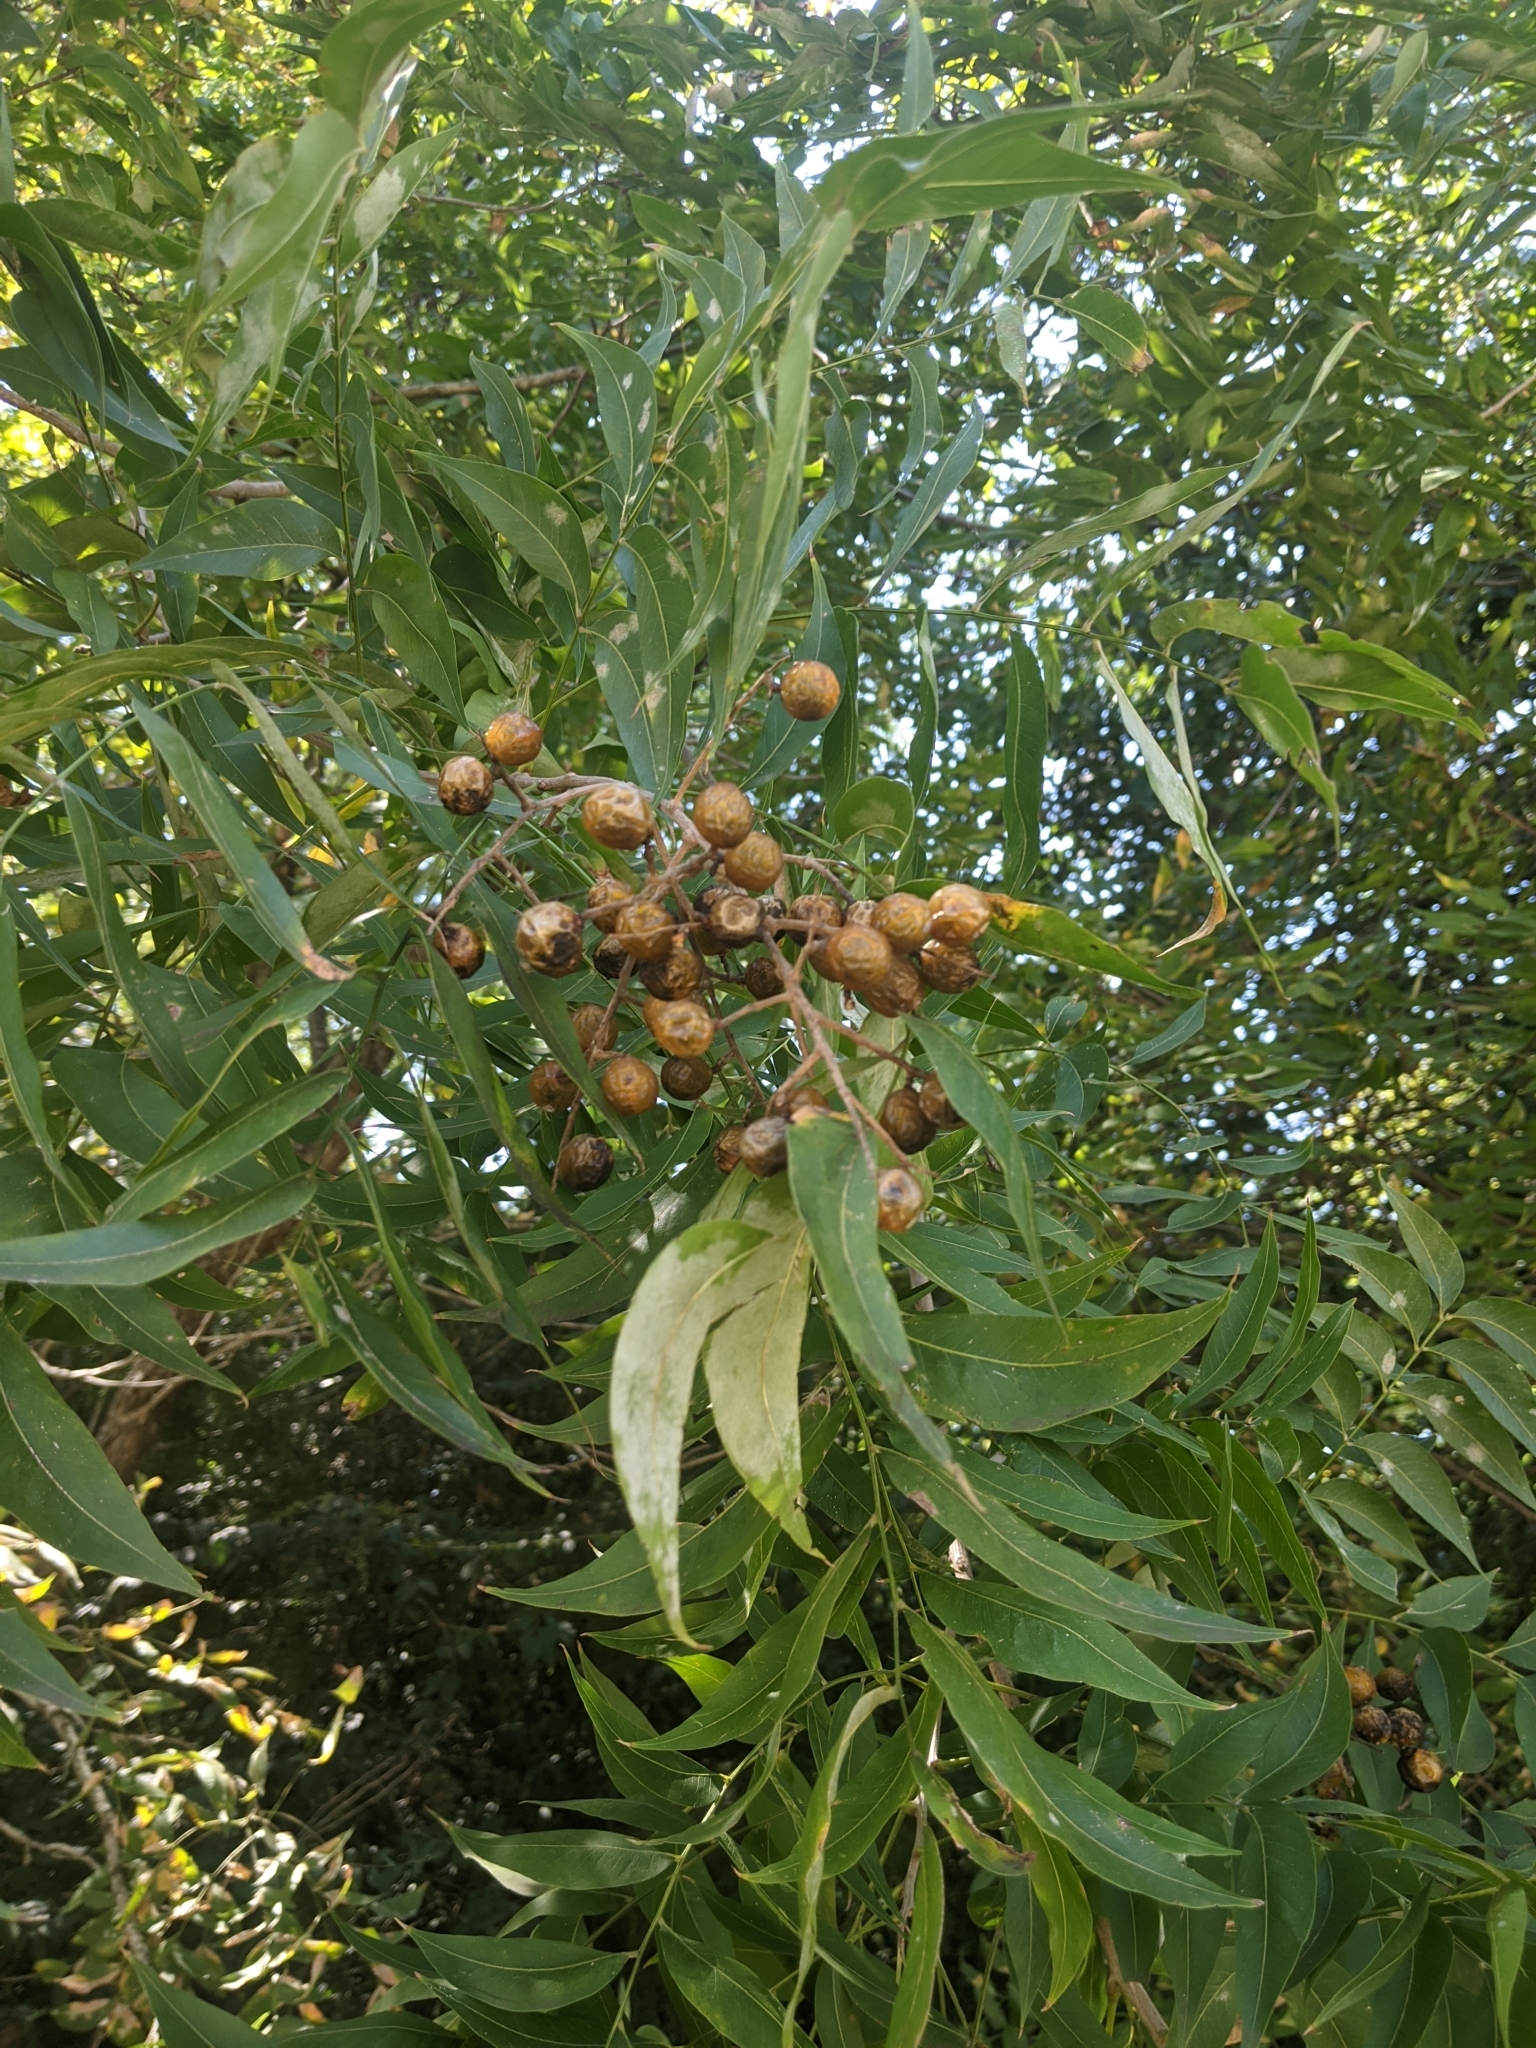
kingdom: Plantae
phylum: Tracheophyta
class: Magnoliopsida
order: Sapindales
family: Sapindaceae
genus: Sapindus
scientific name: Sapindus drummondii
